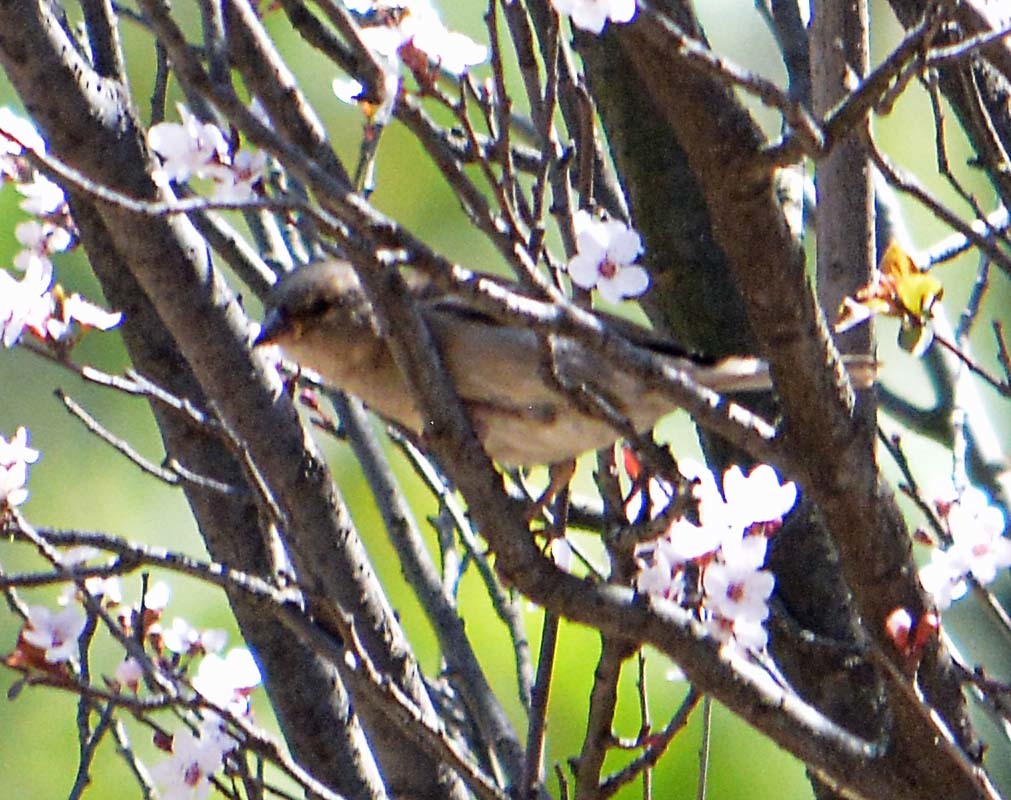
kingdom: Animalia
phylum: Chordata
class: Aves
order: Passeriformes
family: Passeridae
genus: Passer
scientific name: Passer domesticus
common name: House sparrow
